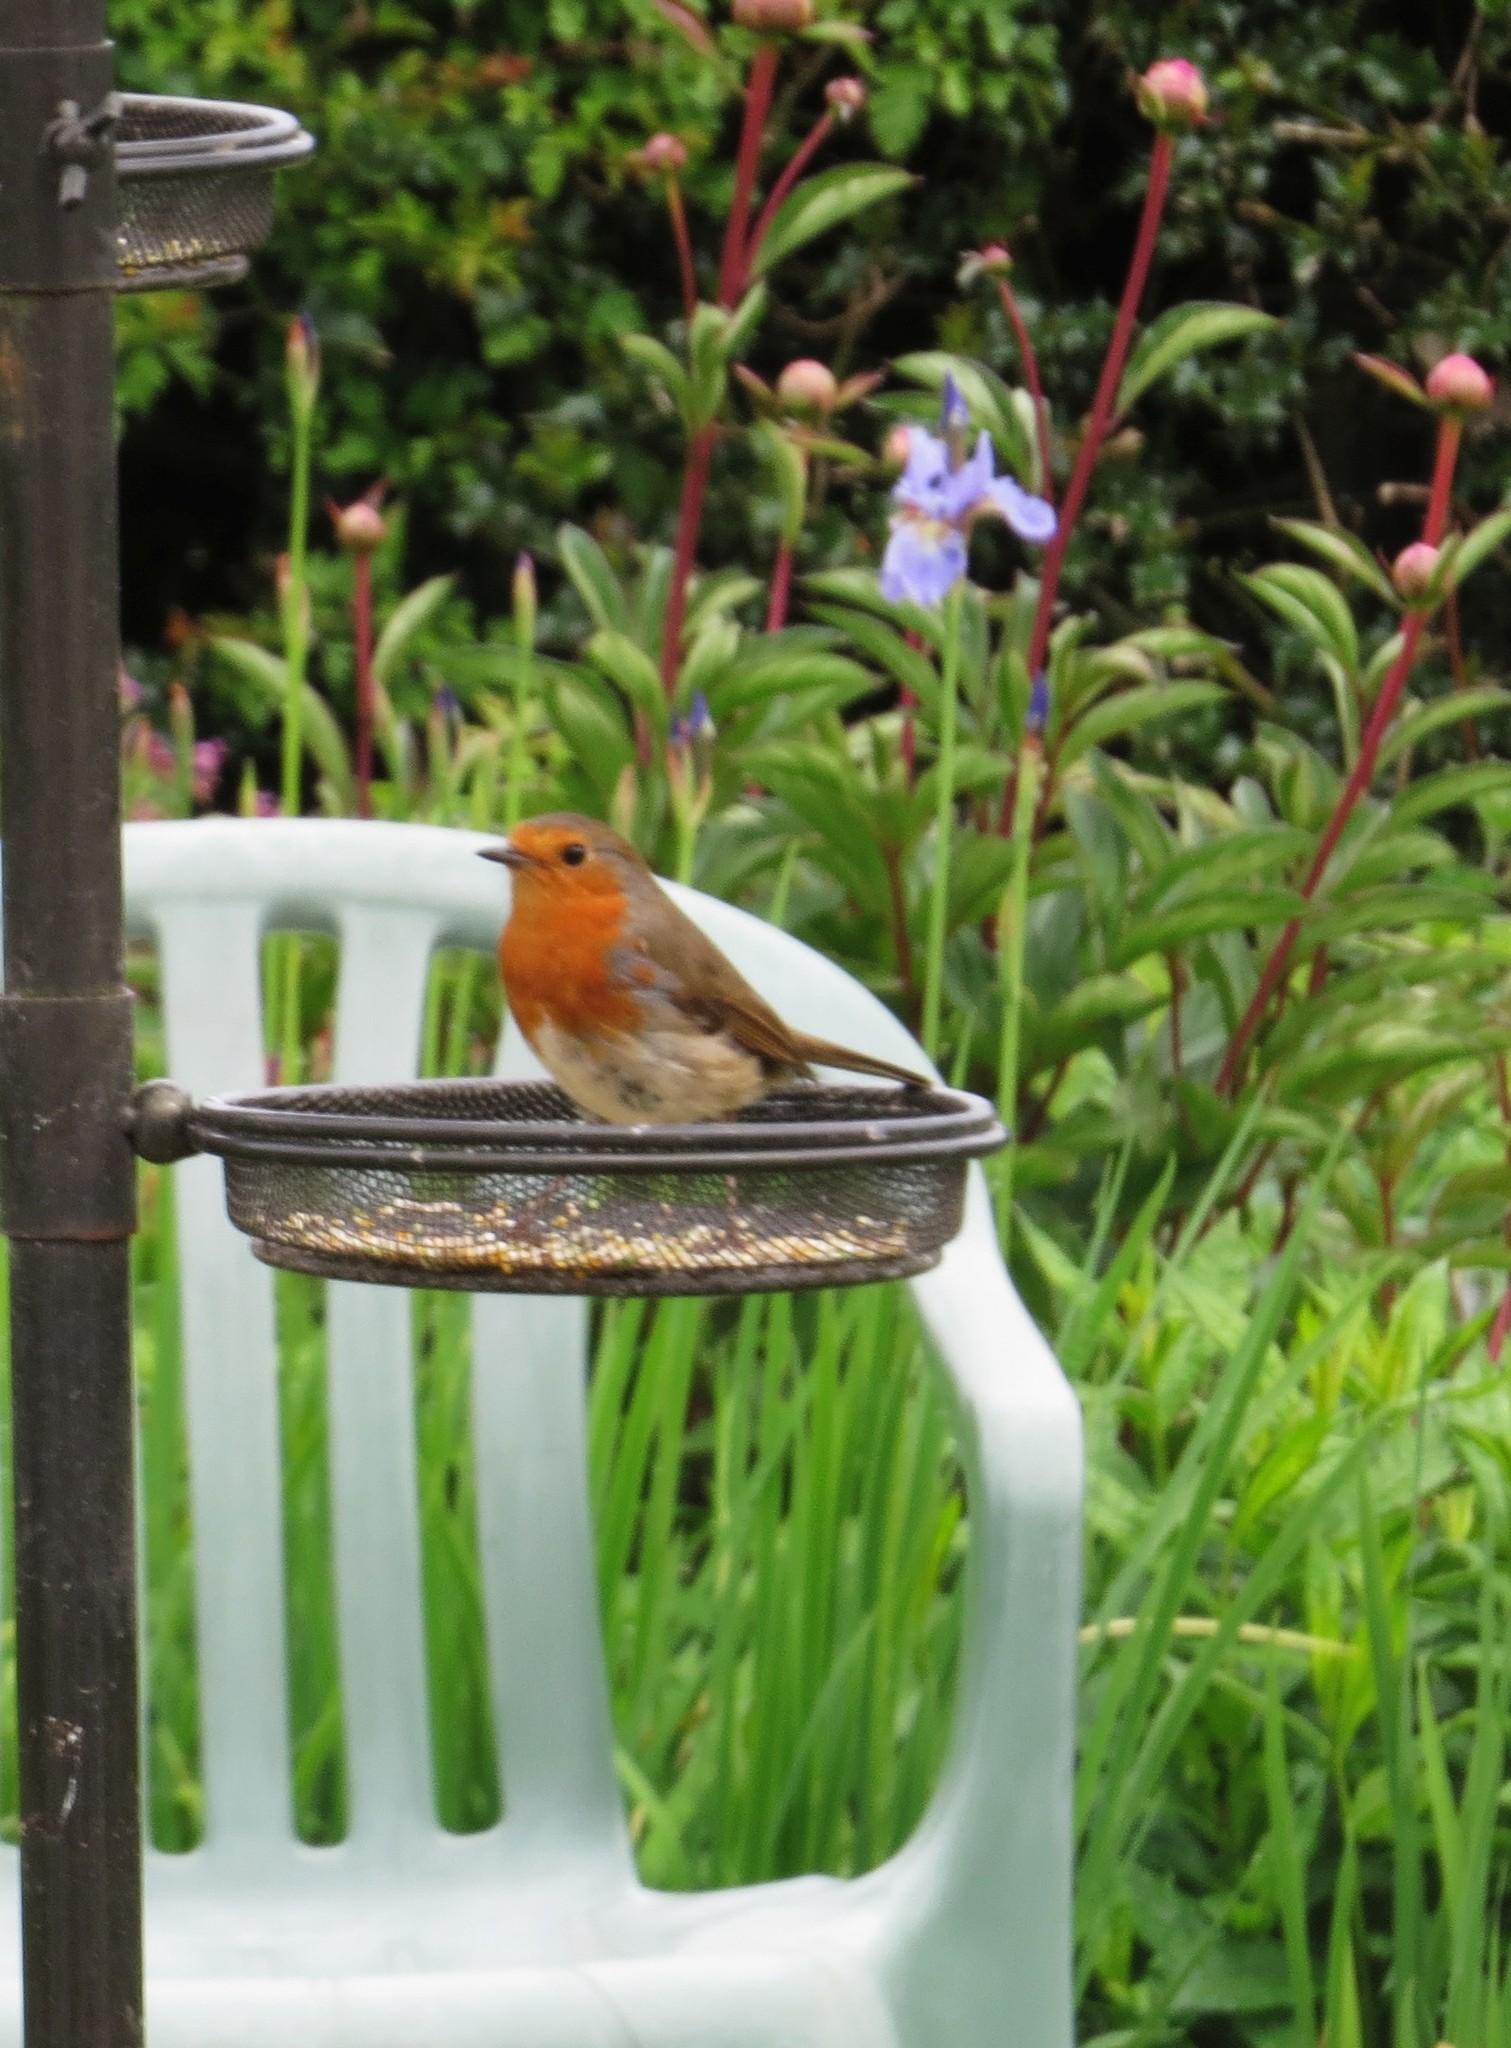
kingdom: Animalia
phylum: Chordata
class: Aves
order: Passeriformes
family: Muscicapidae
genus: Erithacus
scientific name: Erithacus rubecula
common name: European robin
